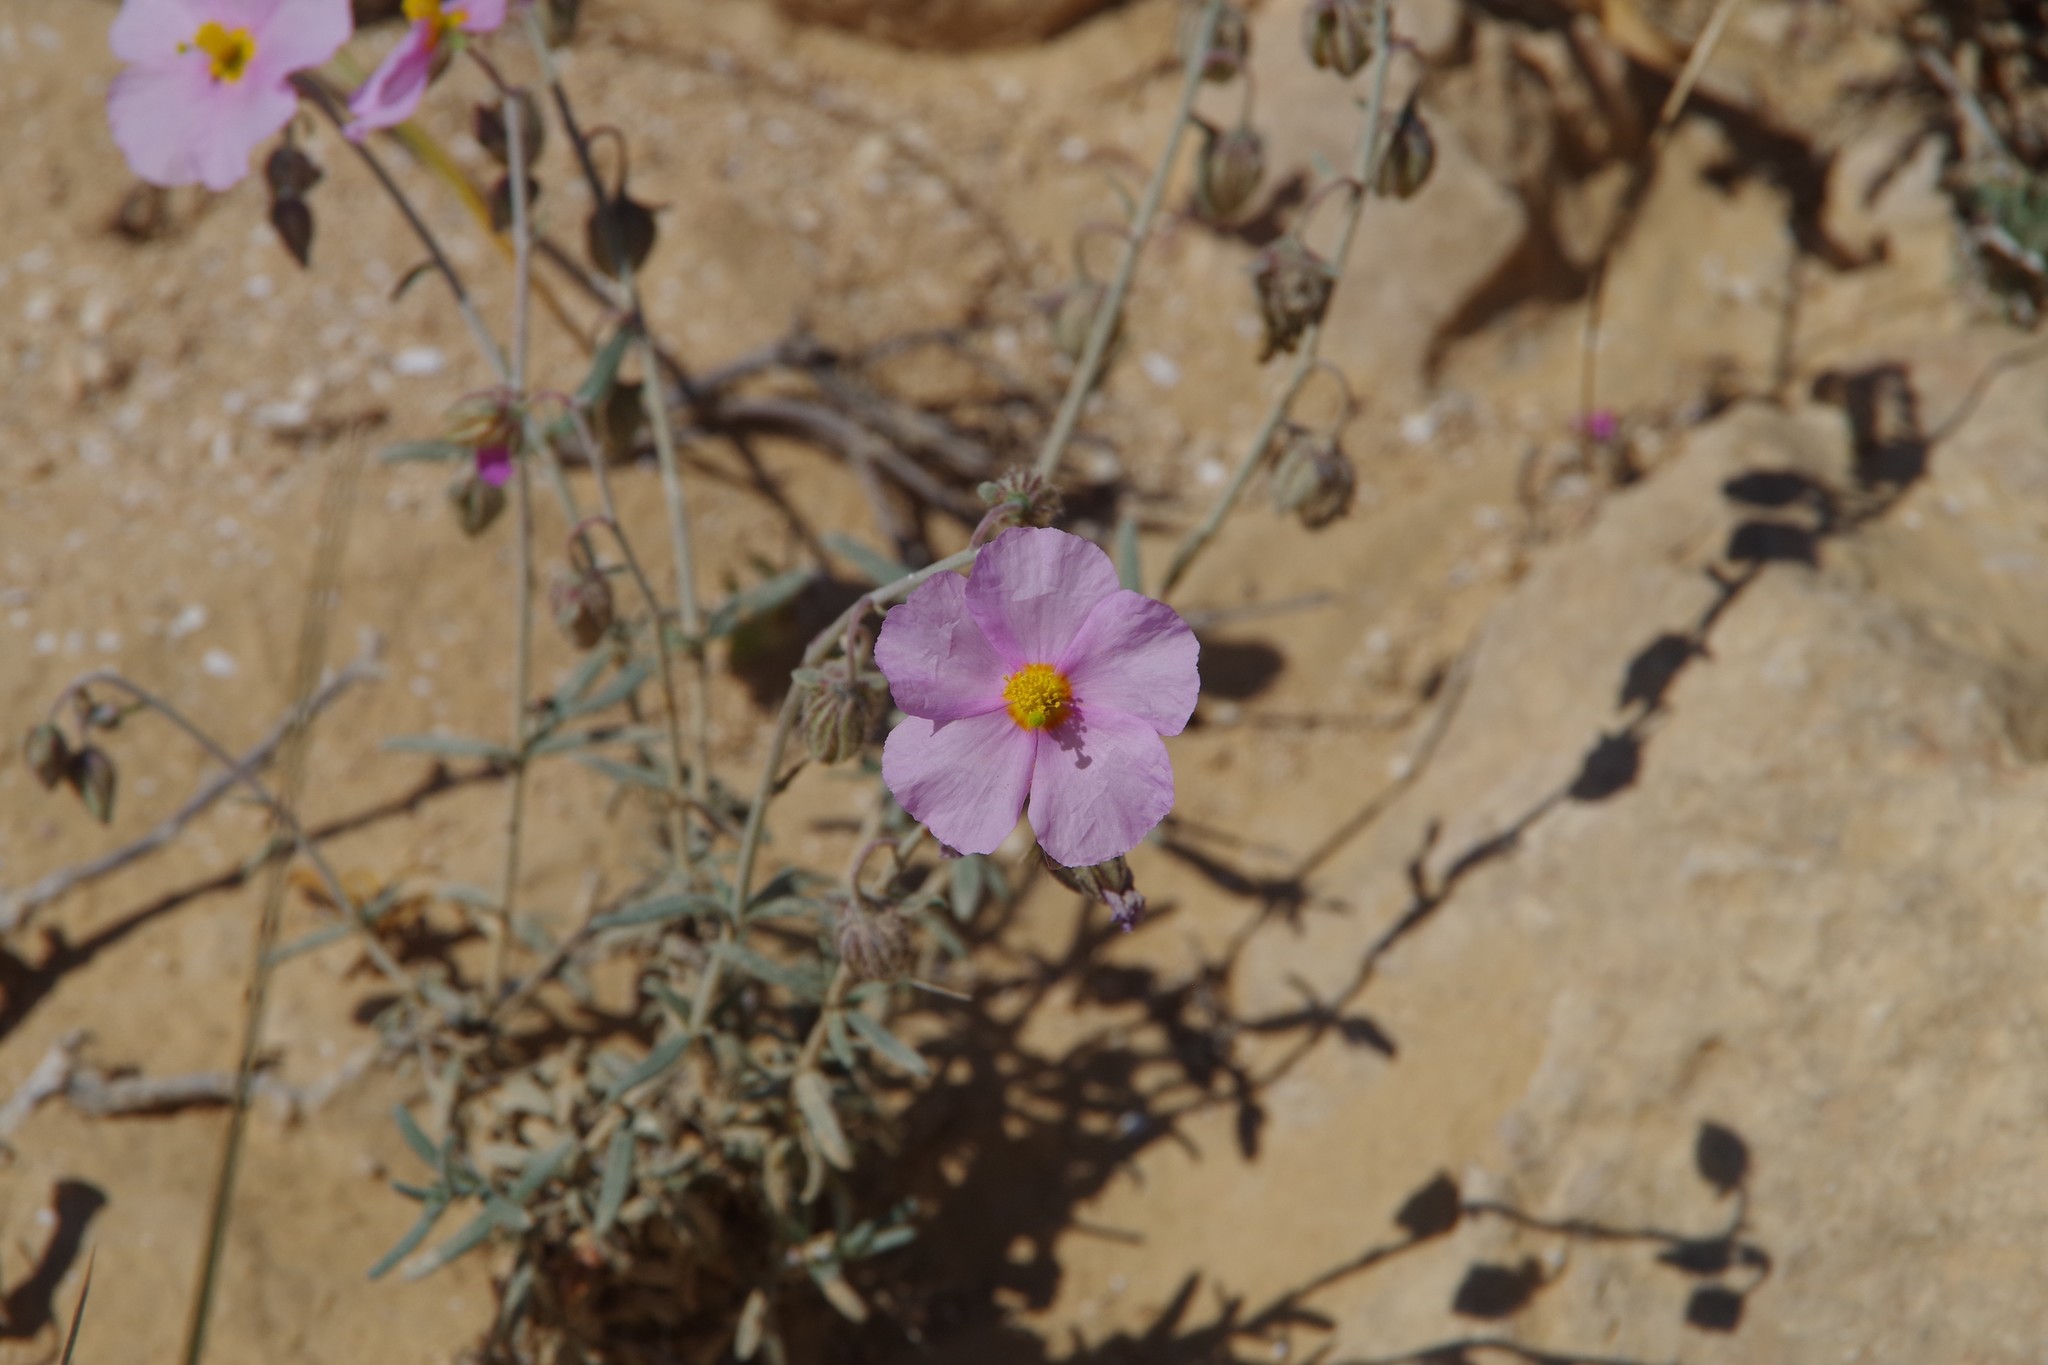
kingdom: Plantae
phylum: Tracheophyta
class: Magnoliopsida
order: Malvales
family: Cistaceae
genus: Helianthemum
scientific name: Helianthemum vesicarium
